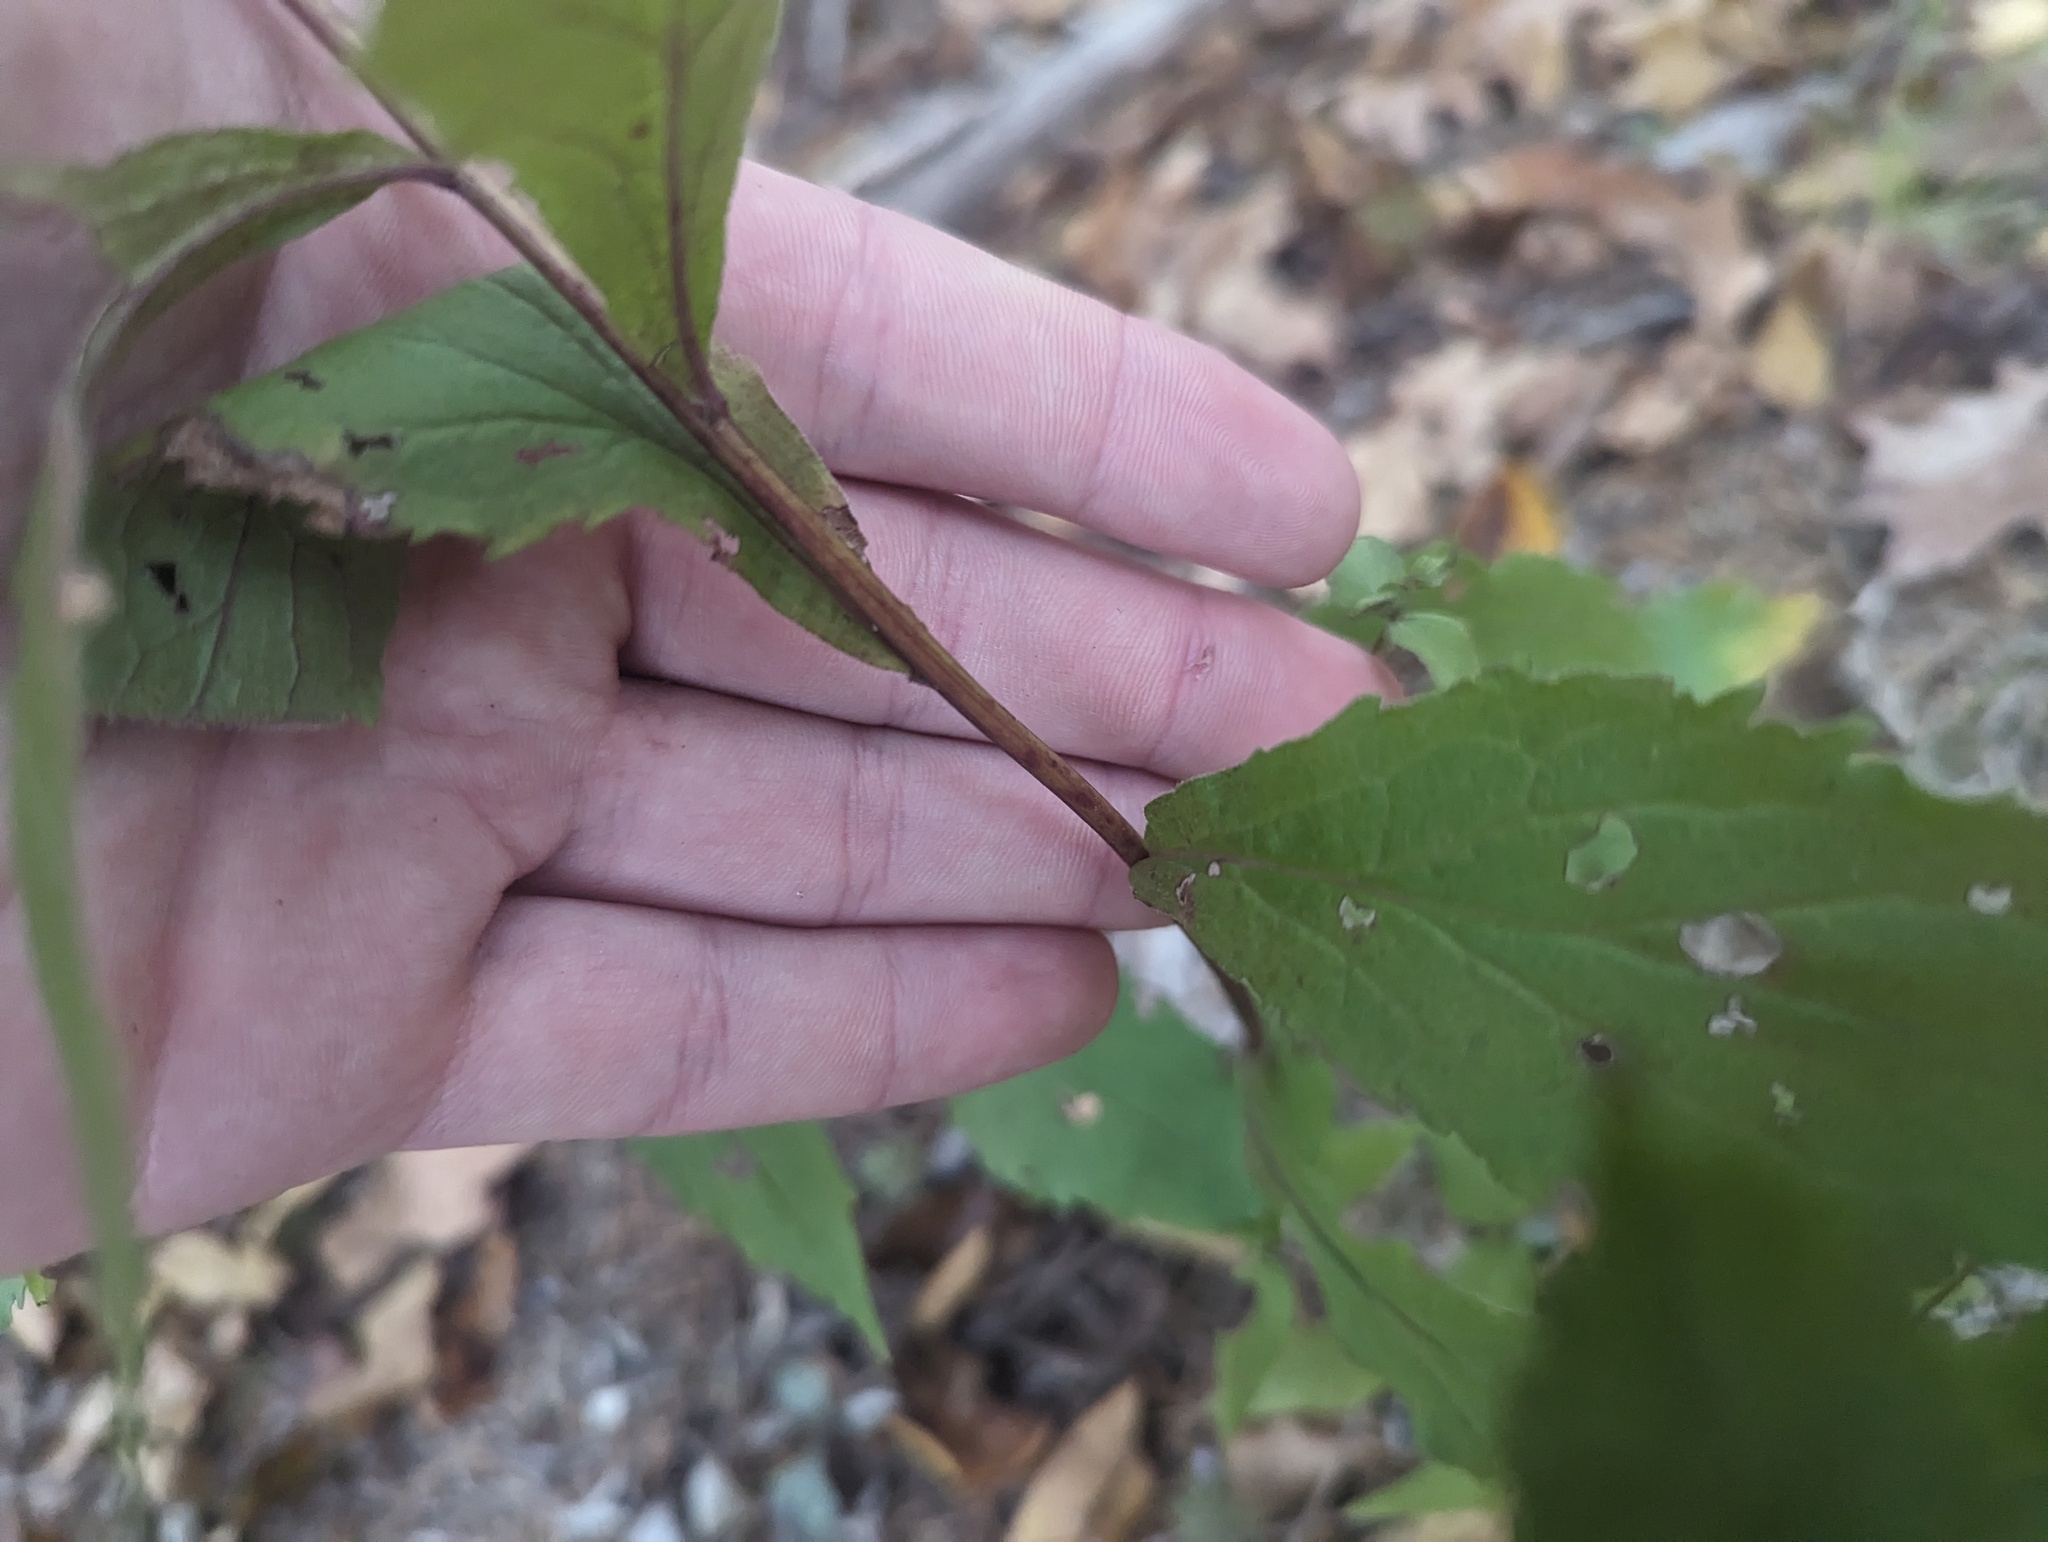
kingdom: Plantae
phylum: Tracheophyta
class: Magnoliopsida
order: Asterales
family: Asteraceae
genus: Solidago
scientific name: Solidago ulmifolia
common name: Elm-leaf goldenrod
